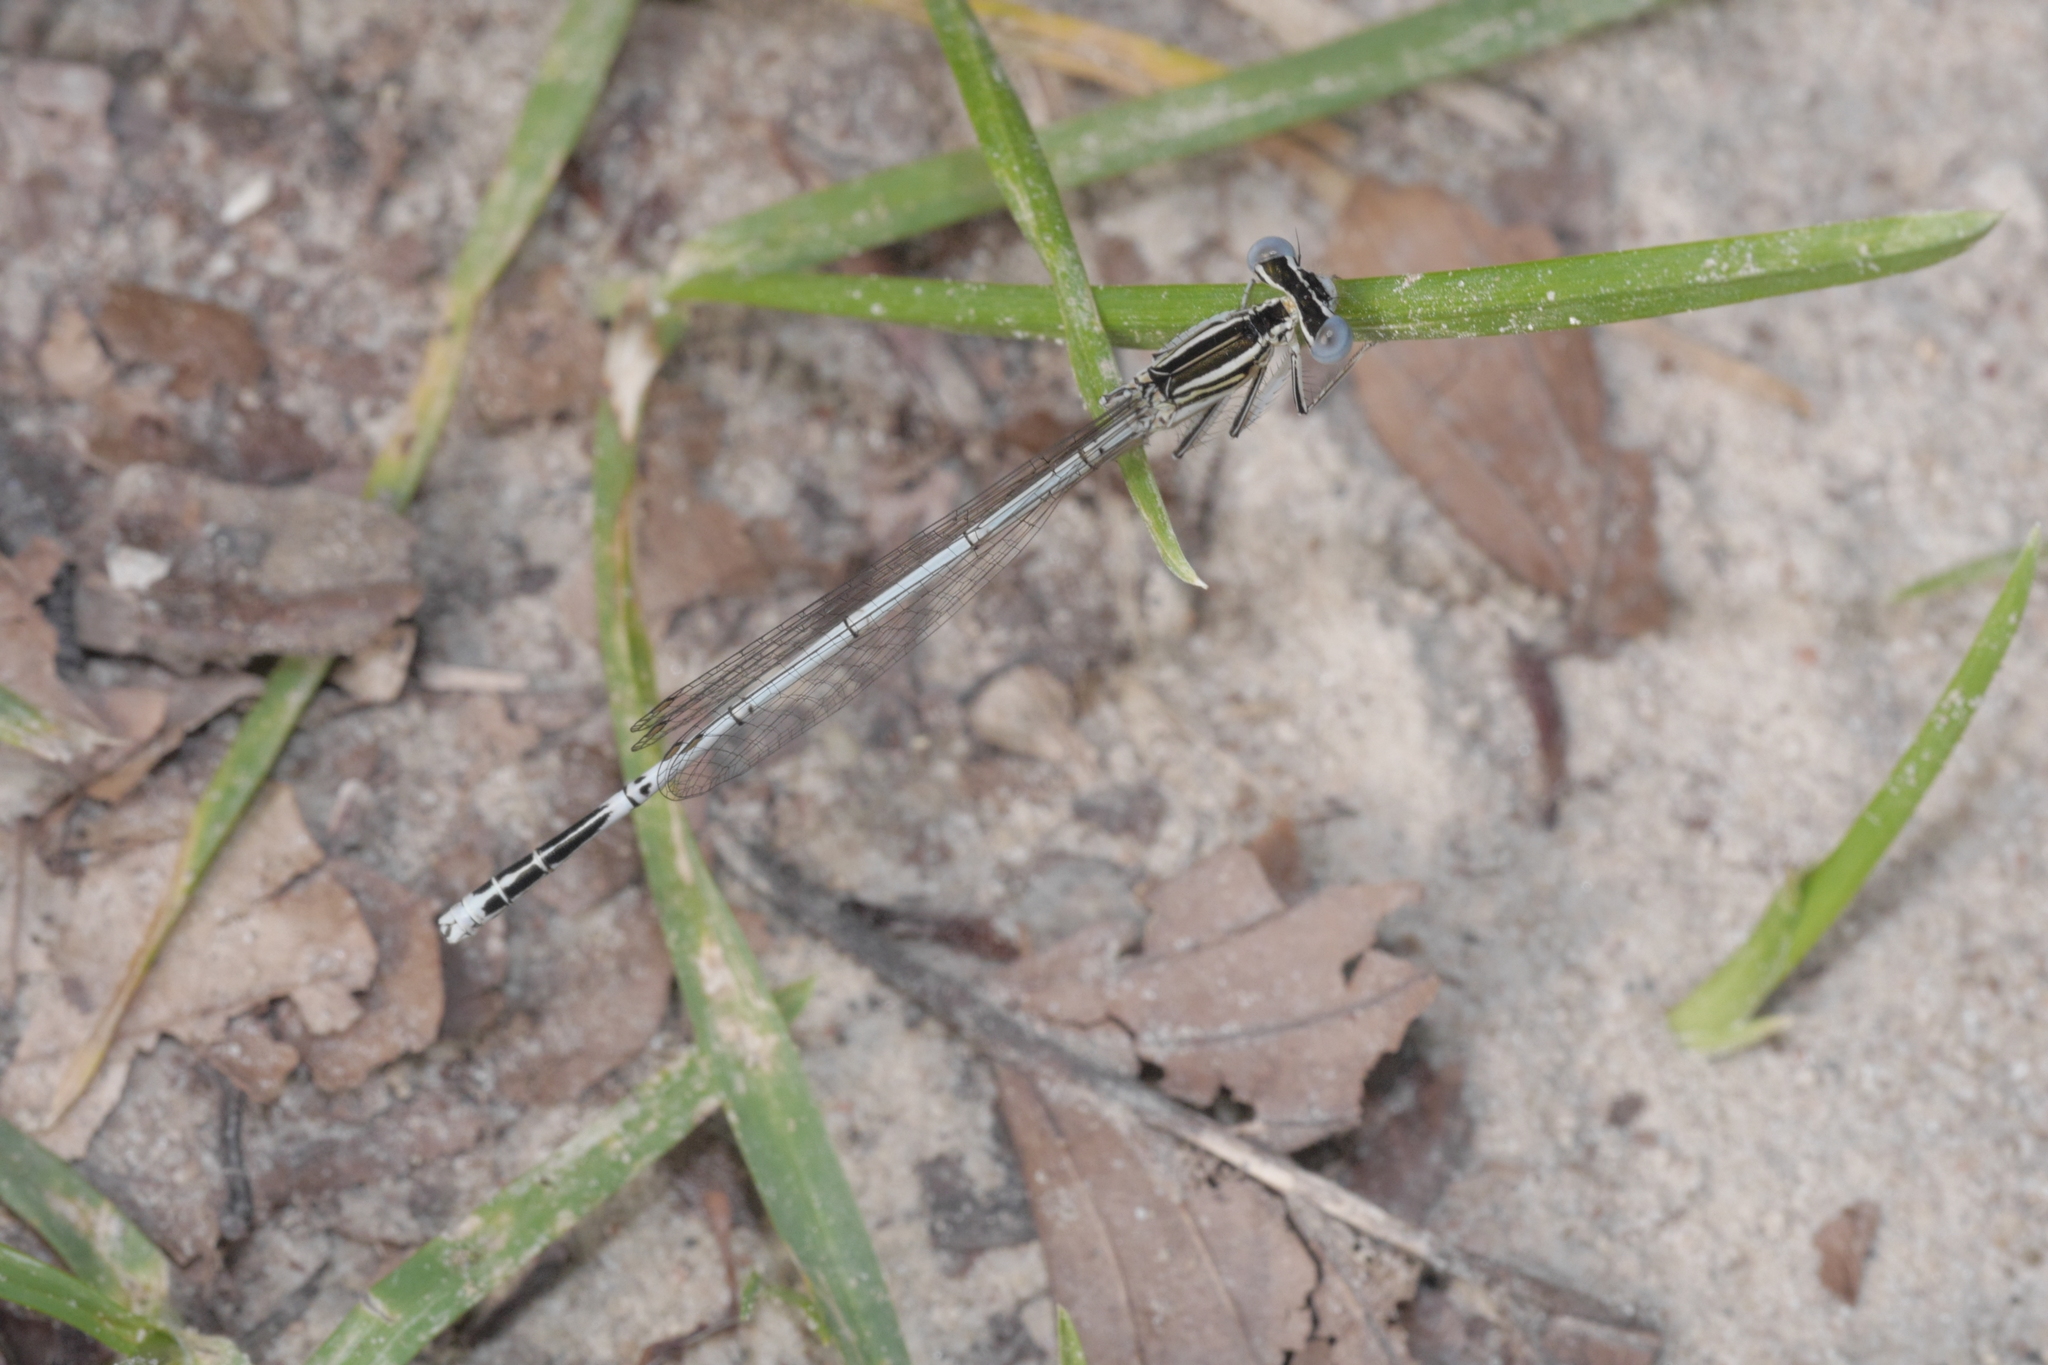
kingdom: Animalia
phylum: Arthropoda
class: Insecta
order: Odonata
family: Platycnemididae
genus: Platycnemis
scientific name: Platycnemis pennipes
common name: White-legged damselfly
